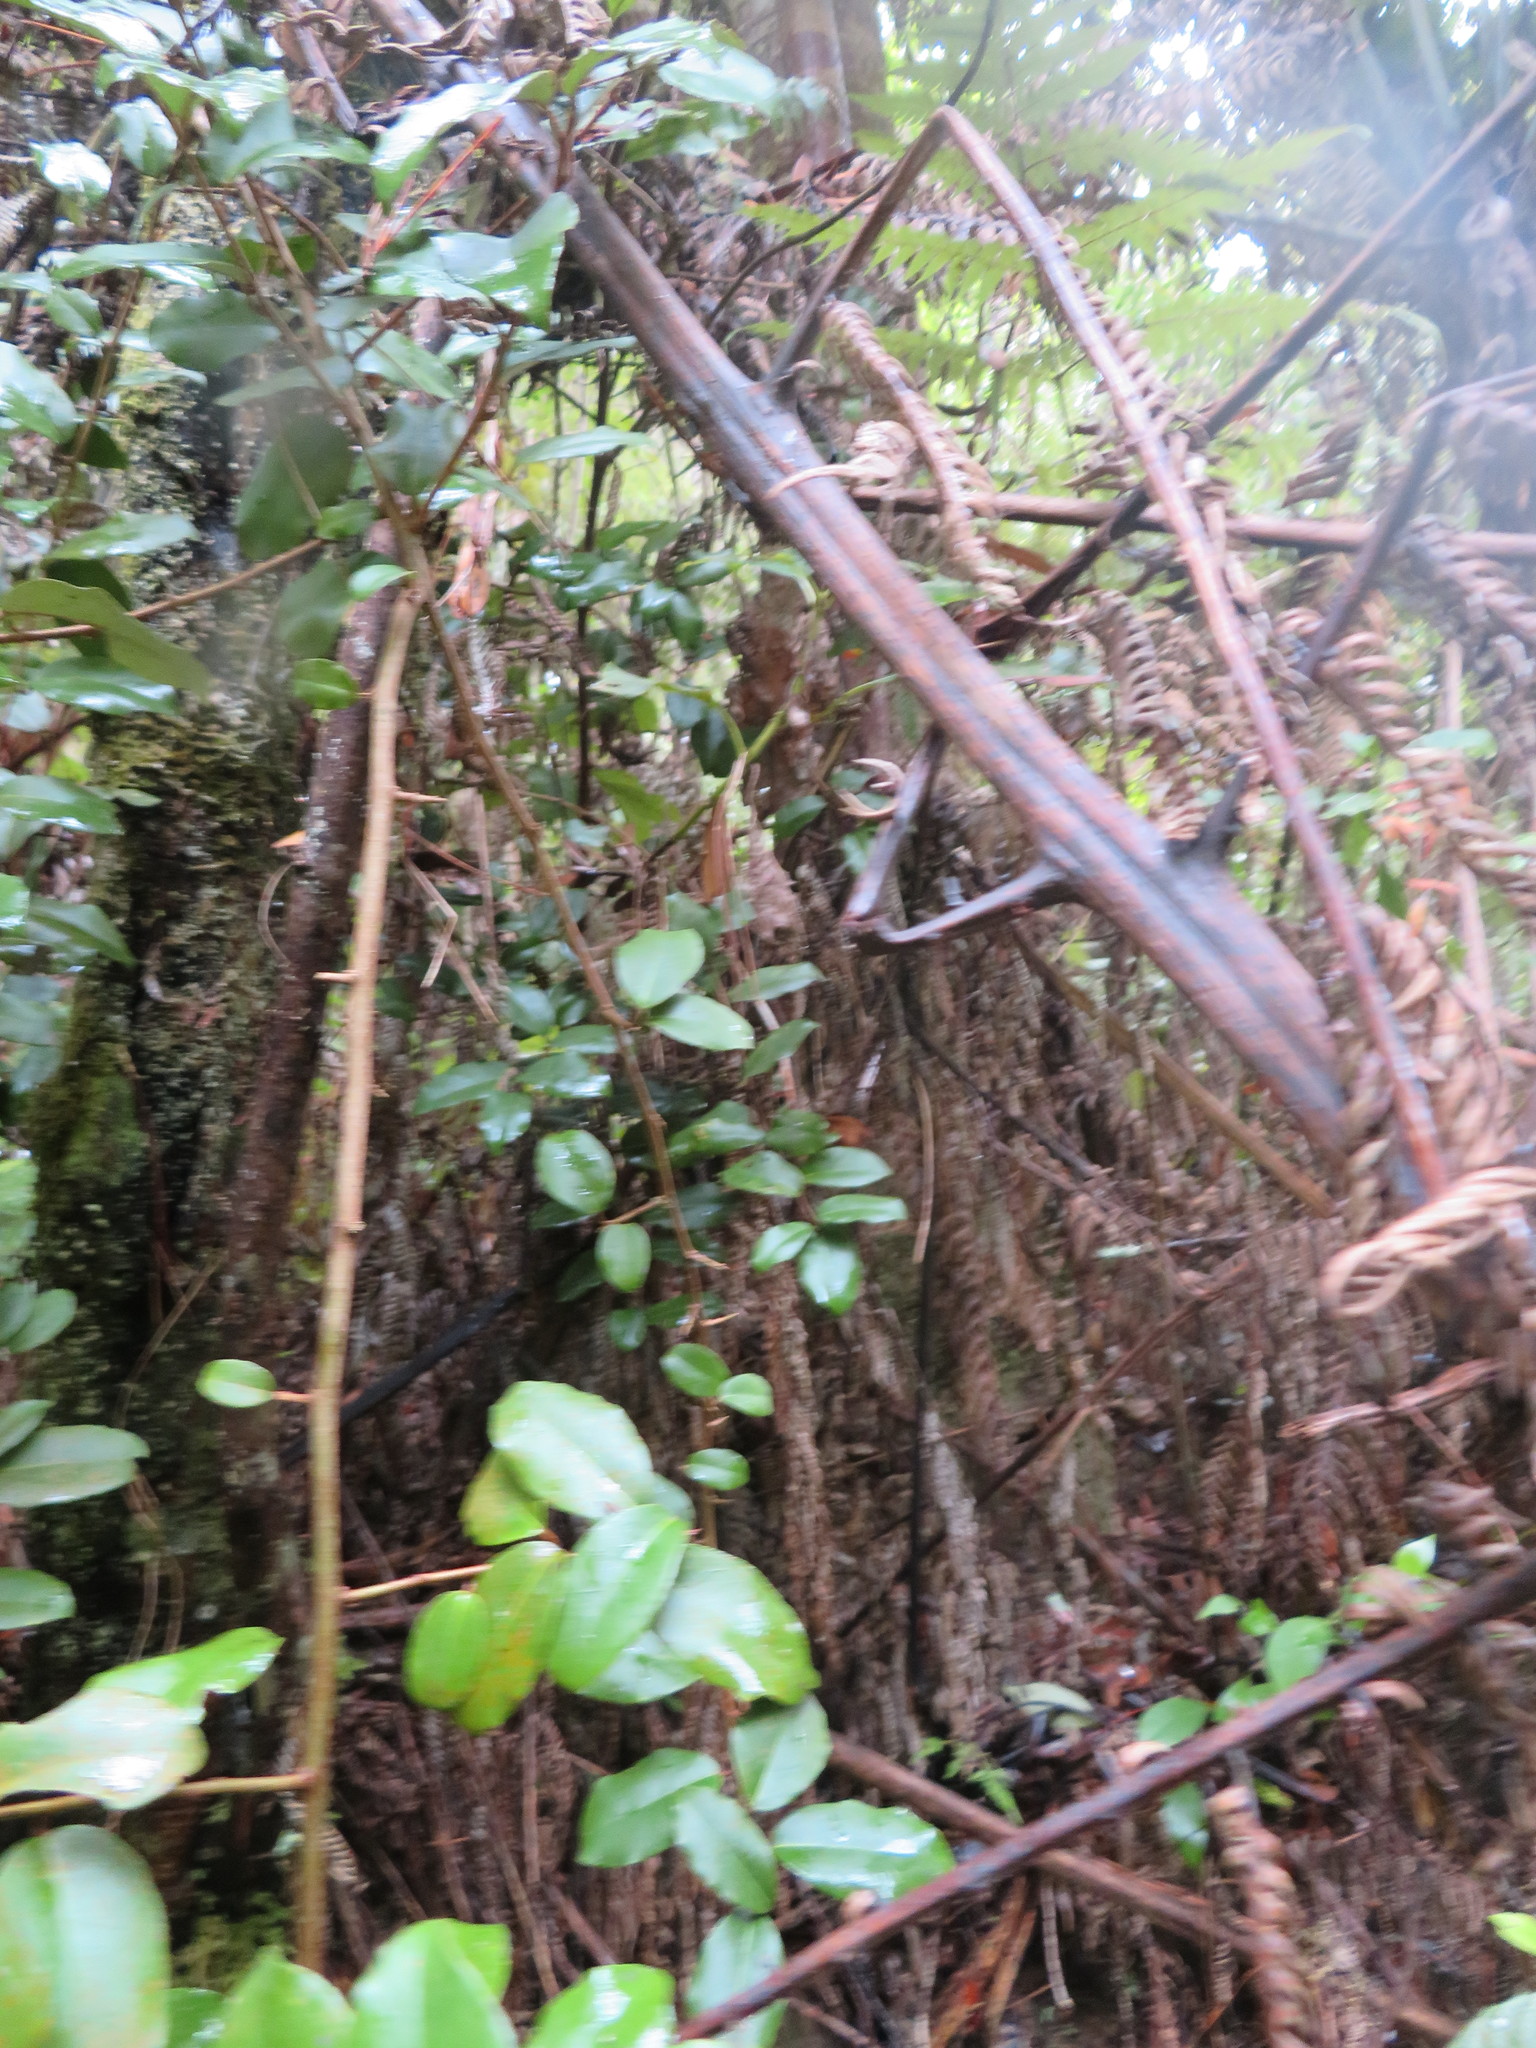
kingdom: Plantae
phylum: Tracheophyta
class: Magnoliopsida
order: Rosales
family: Elaeagnaceae
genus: Elaeagnus
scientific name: Elaeagnus reflexa
